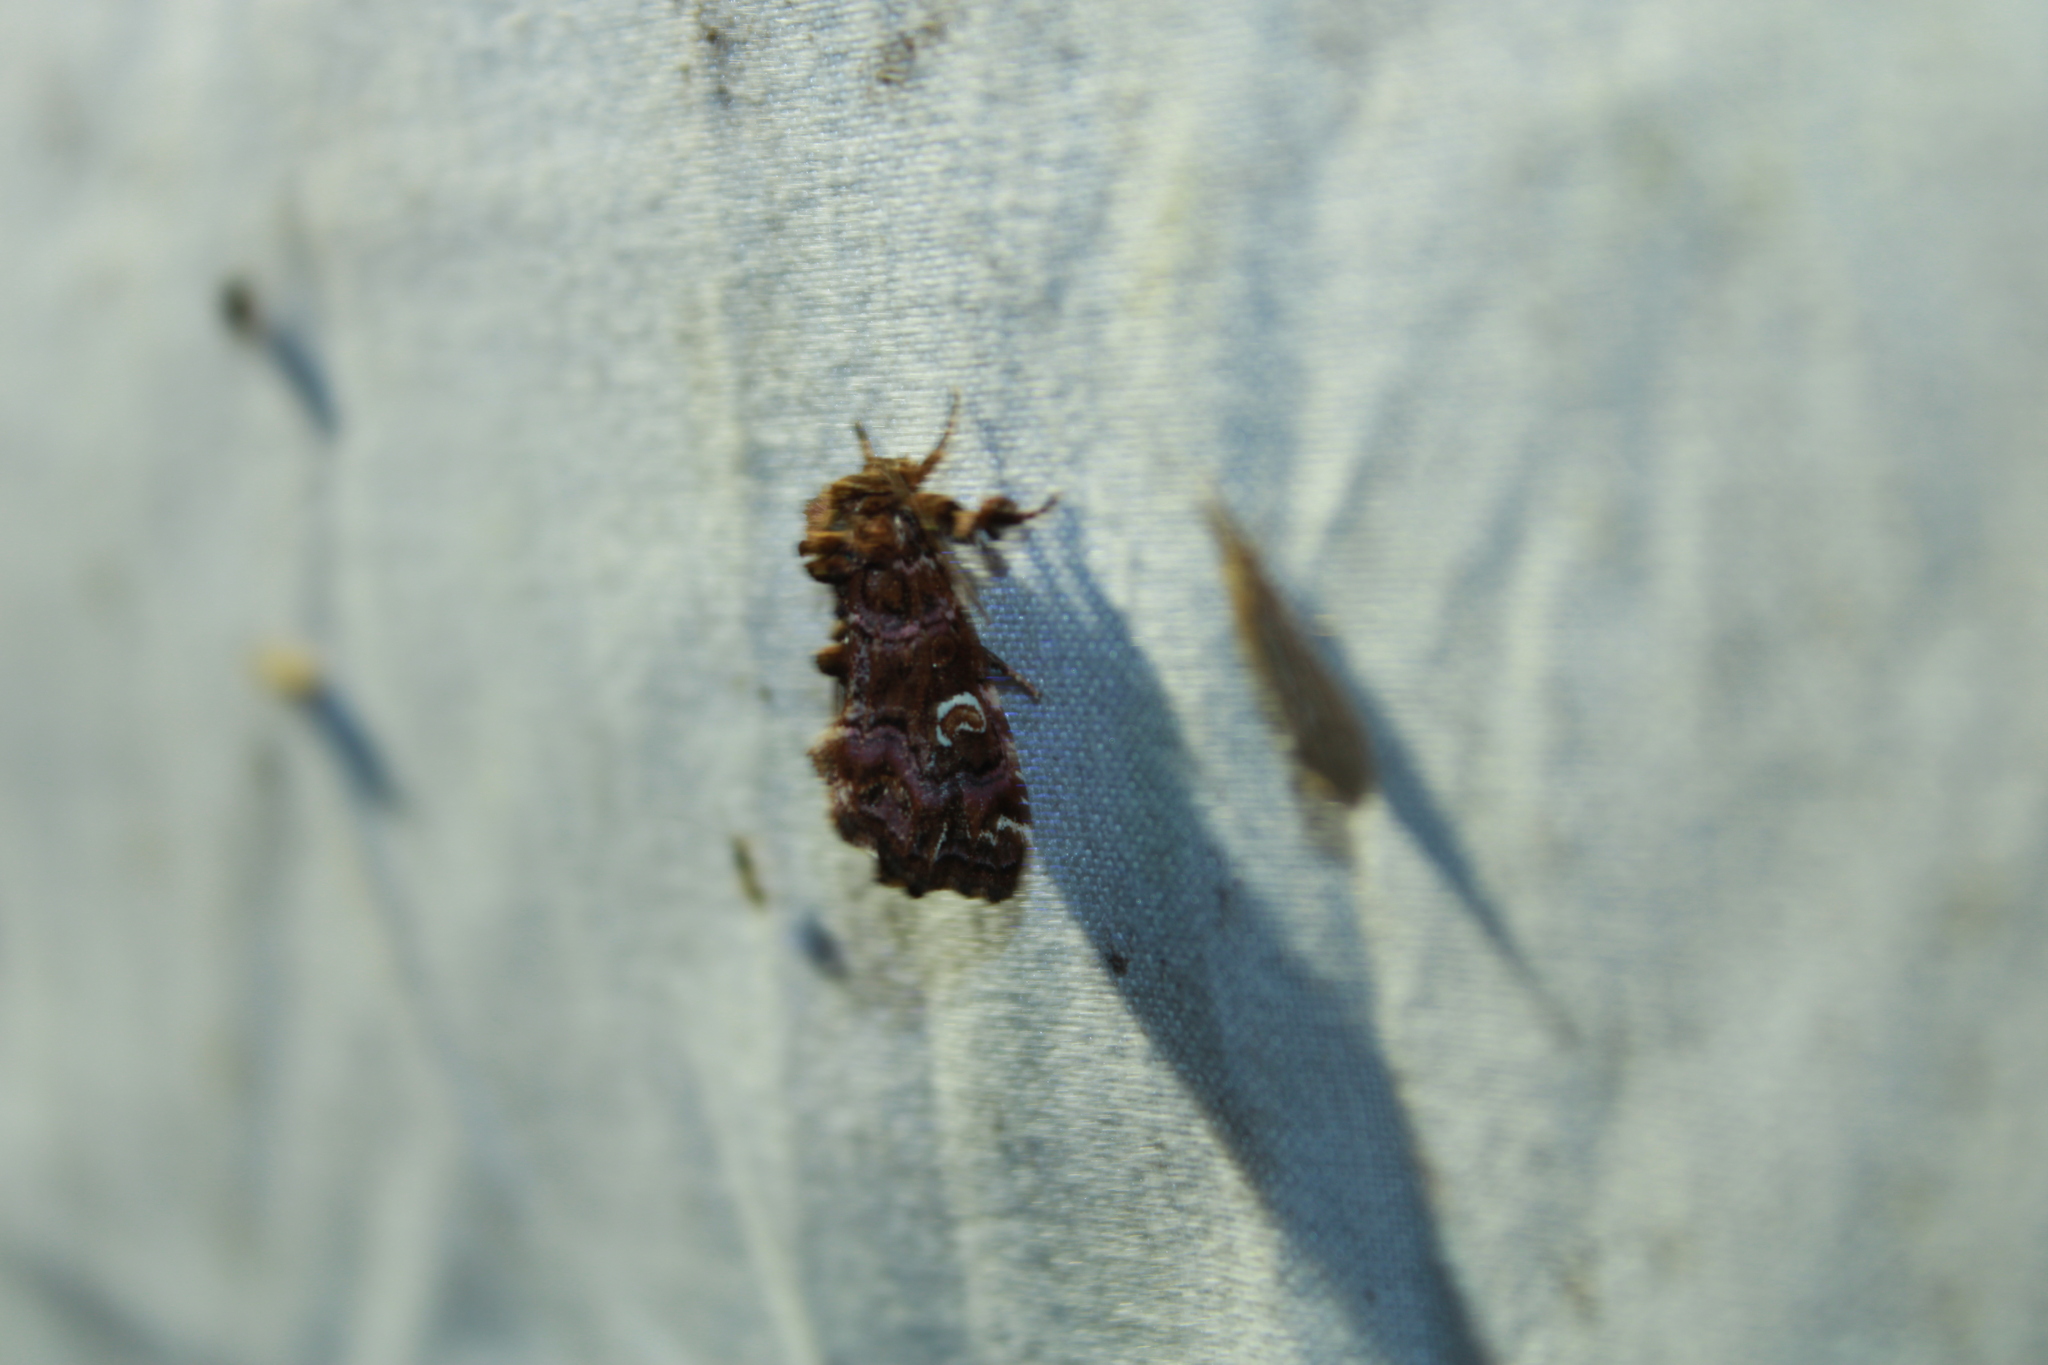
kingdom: Animalia
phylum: Arthropoda
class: Insecta
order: Lepidoptera
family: Noctuidae
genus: Callopistria
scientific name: Callopistria mollissima
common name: Pink-shaded fern moth
